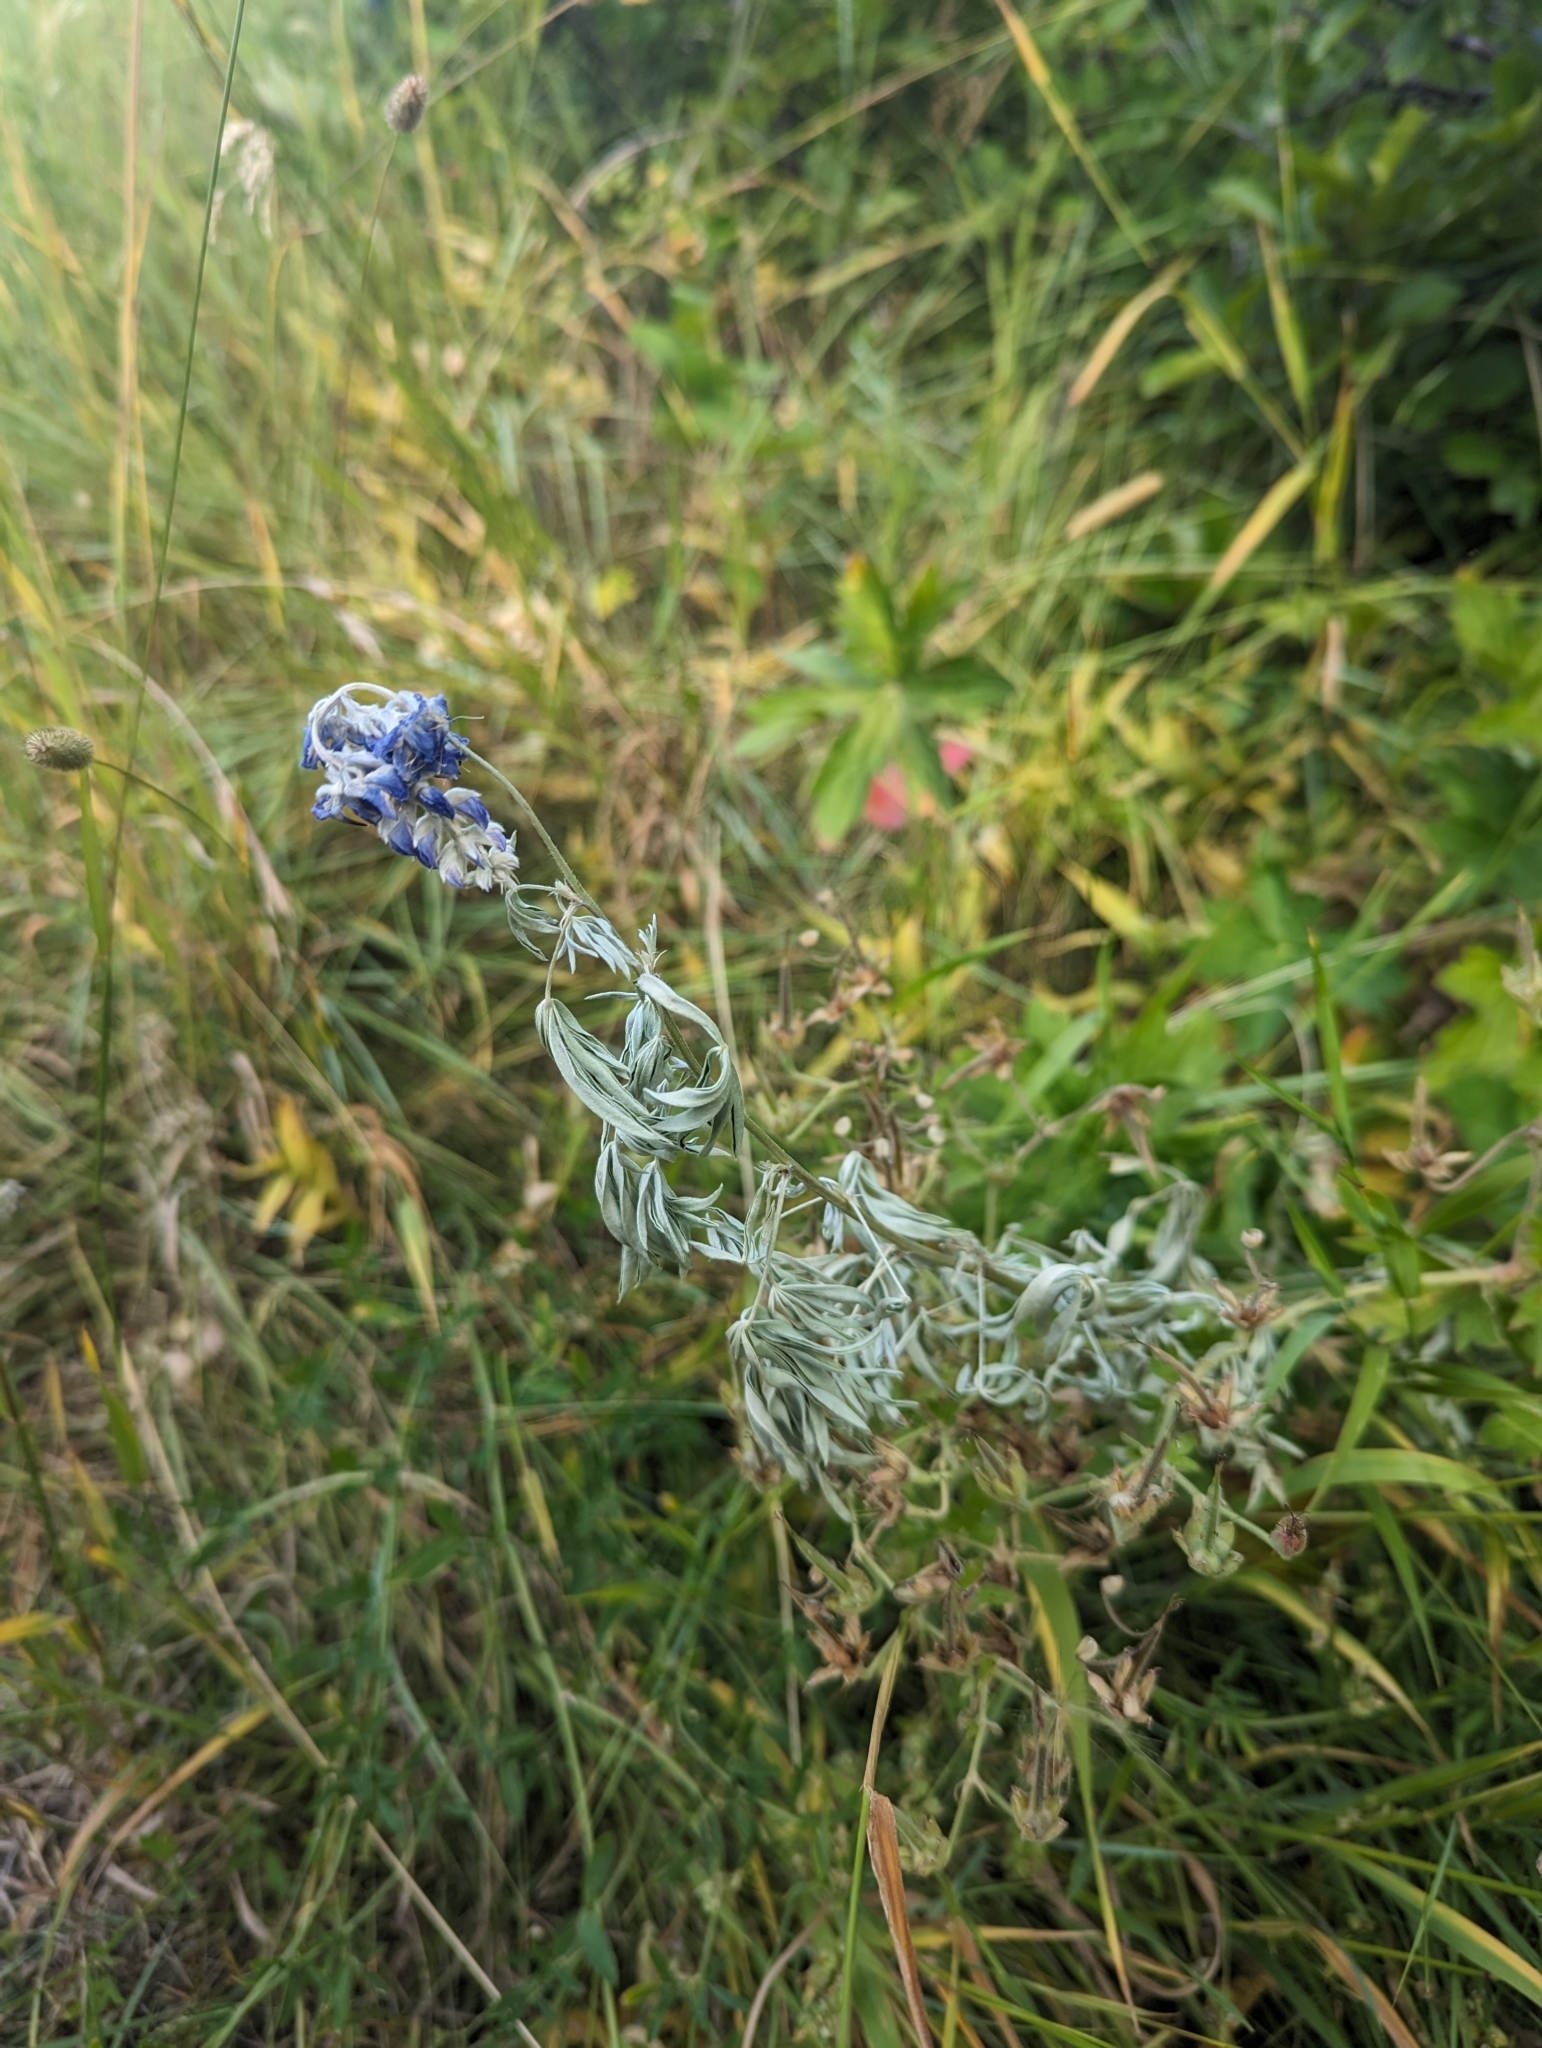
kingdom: Plantae
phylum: Tracheophyta
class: Magnoliopsida
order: Fabales
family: Fabaceae
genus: Pediomelum
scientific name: Pediomelum argophyllum
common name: Silver-leaved indian breadroot
